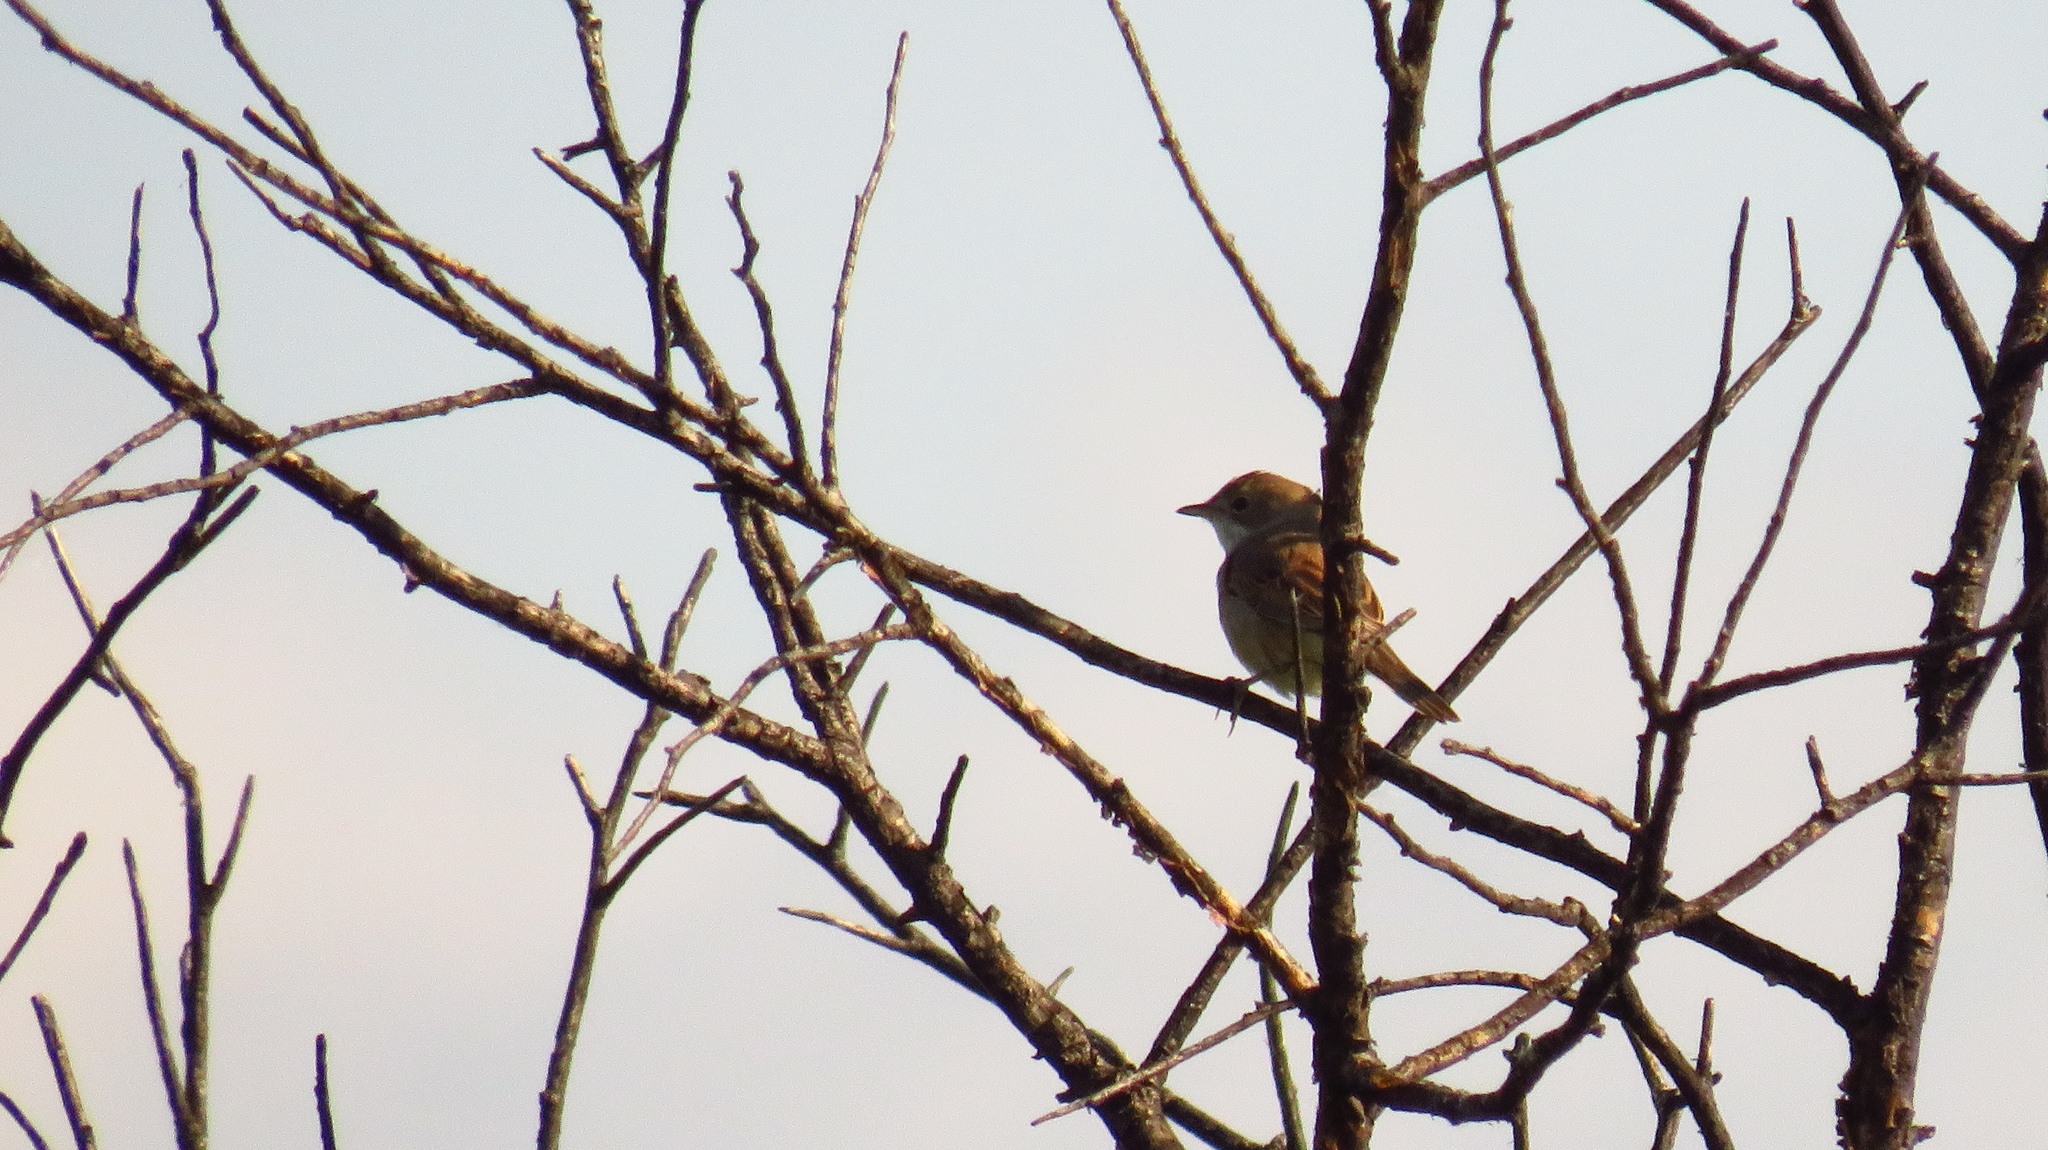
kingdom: Animalia
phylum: Chordata
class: Aves
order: Passeriformes
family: Sylviidae
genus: Sylvia
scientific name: Sylvia communis
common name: Common whitethroat
